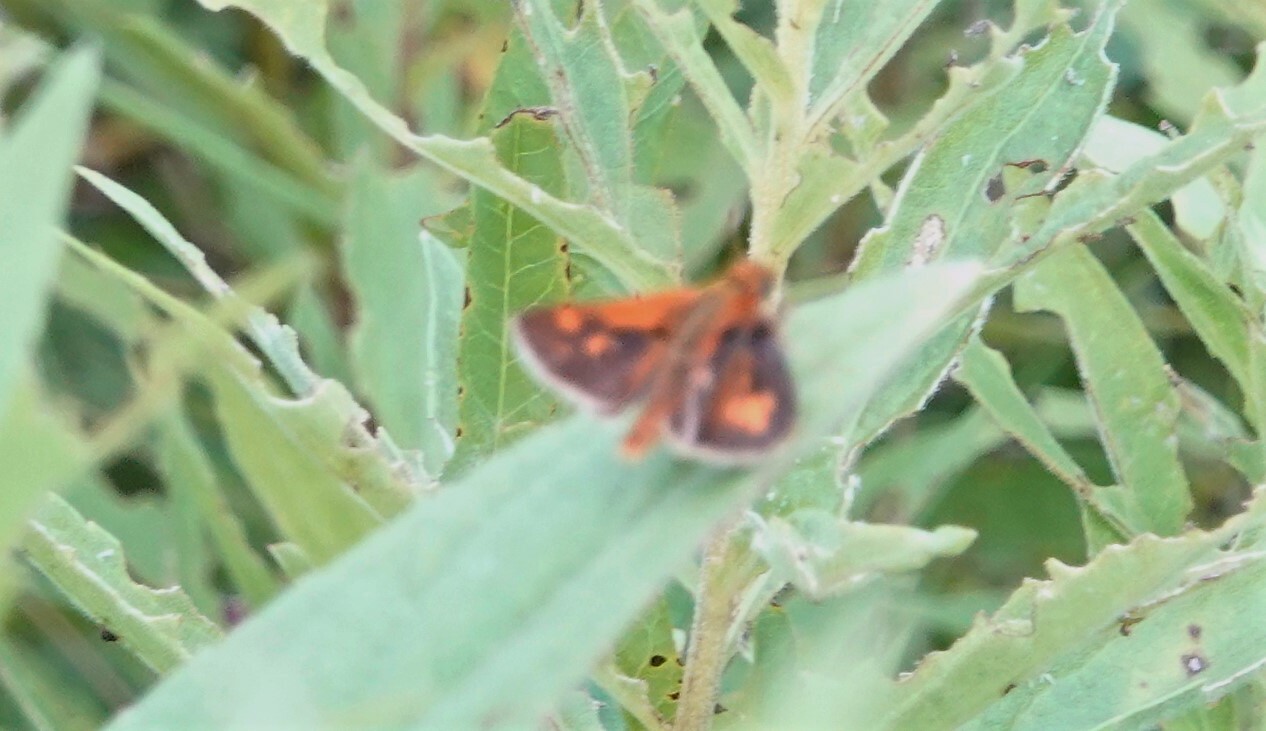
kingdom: Animalia
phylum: Arthropoda
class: Insecta
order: Lepidoptera
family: Hesperiidae
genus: Polites
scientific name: Polites coras
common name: Peck's skipper
